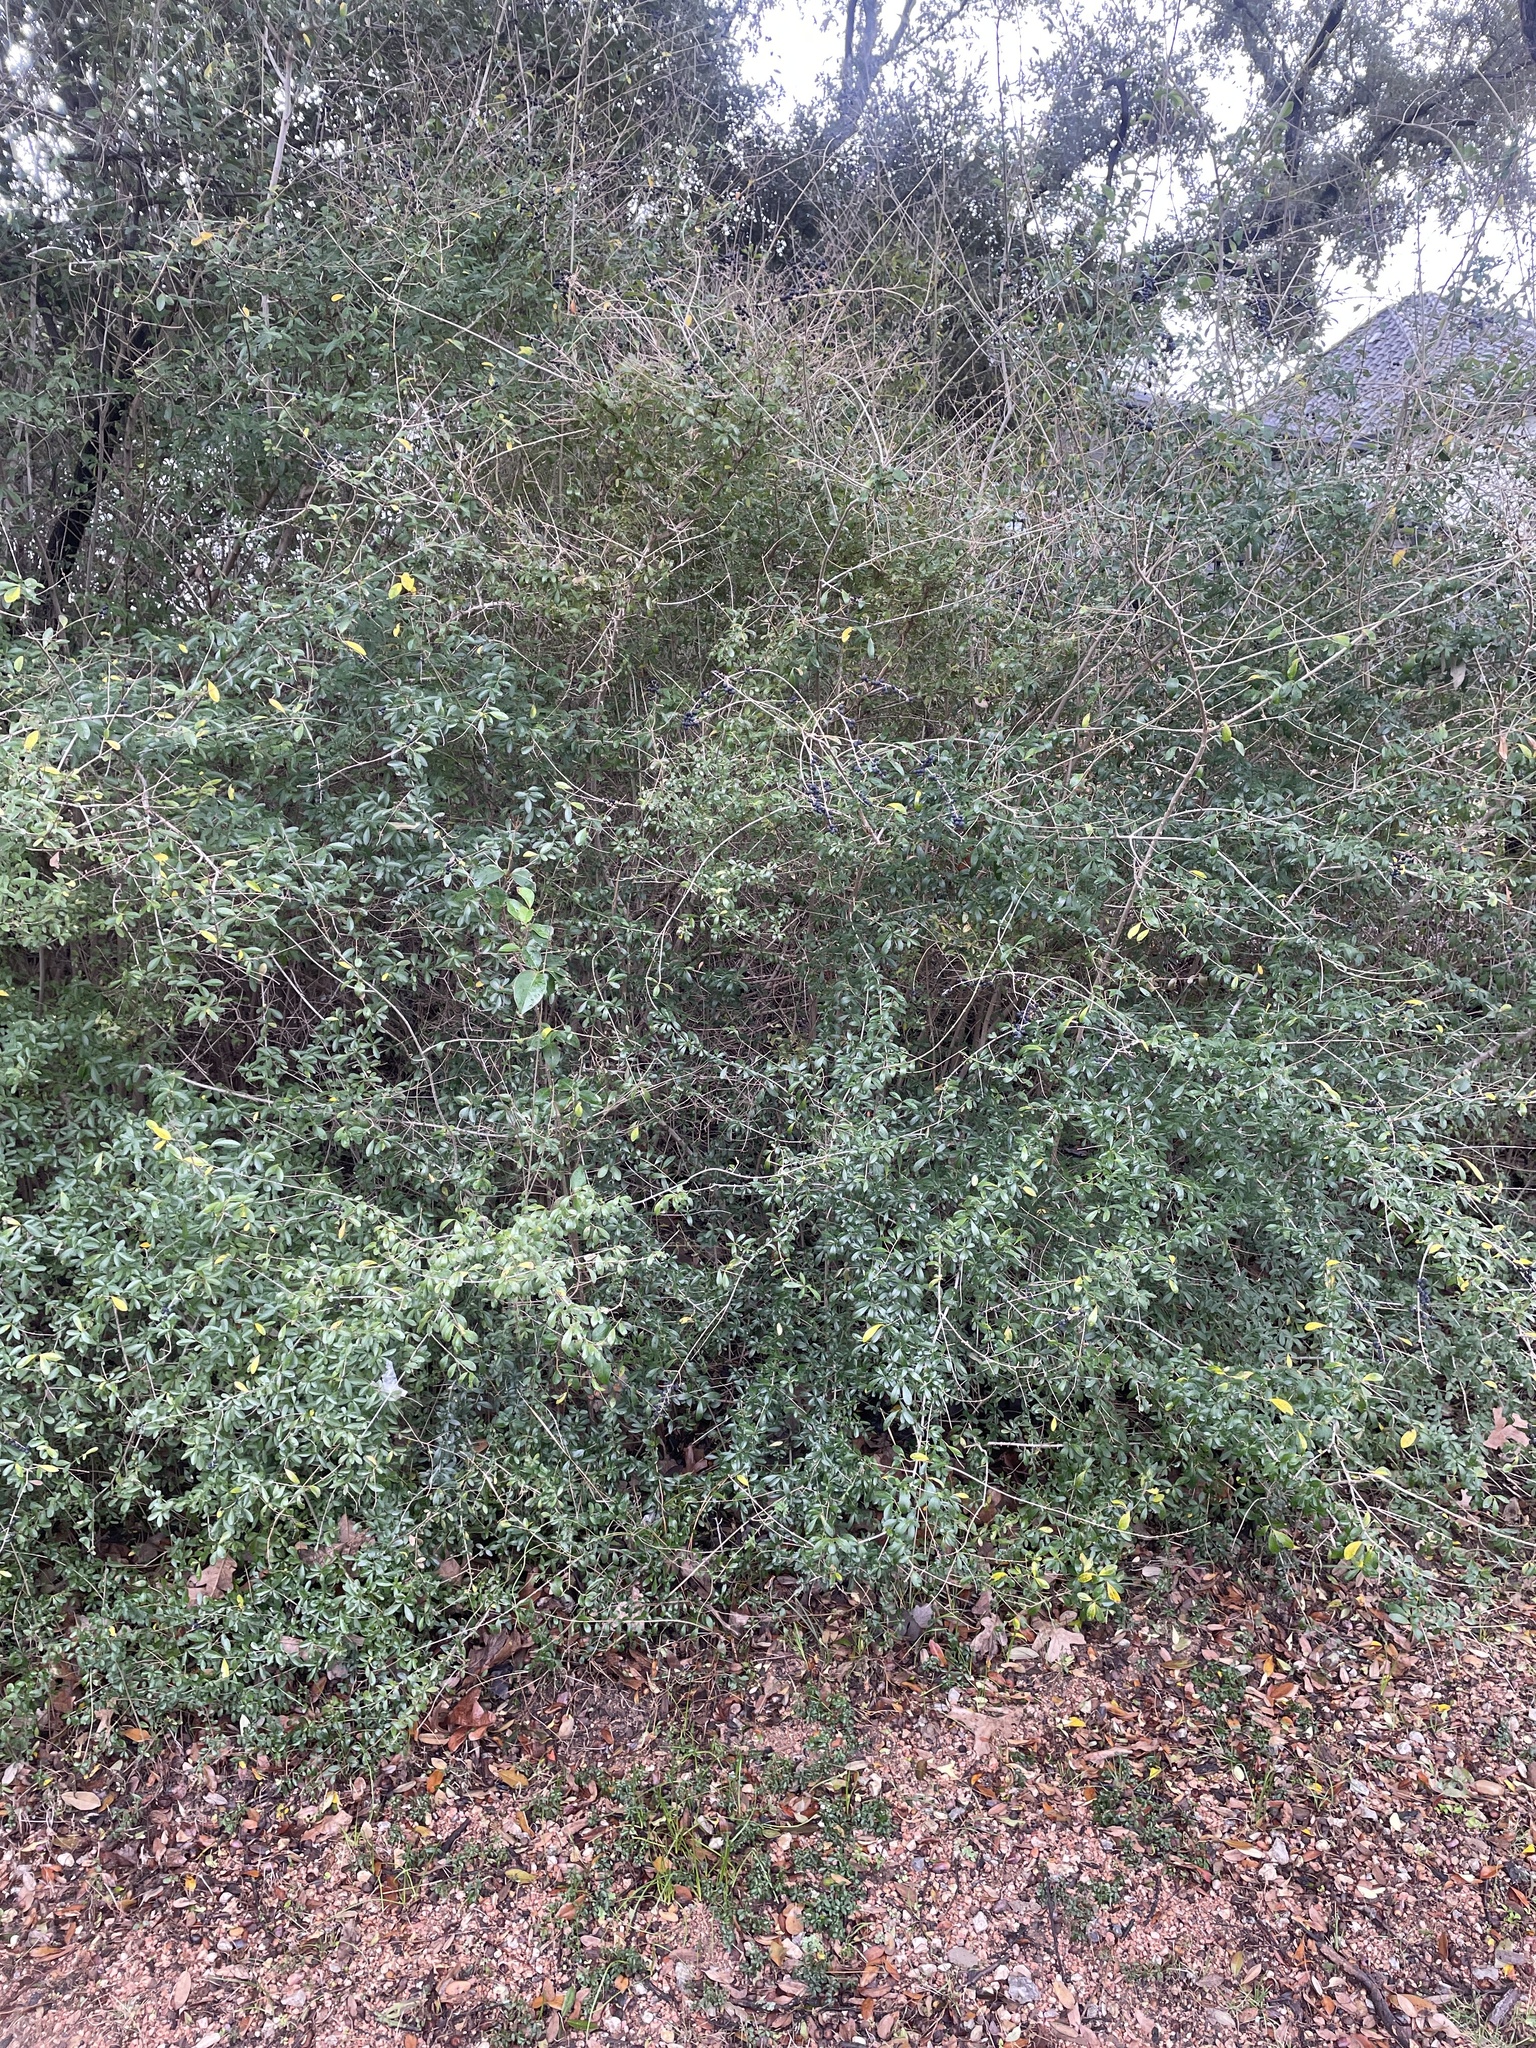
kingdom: Plantae
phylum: Tracheophyta
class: Magnoliopsida
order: Lamiales
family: Oleaceae
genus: Ligustrum
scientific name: Ligustrum quihoui
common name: Waxyleaf privet
